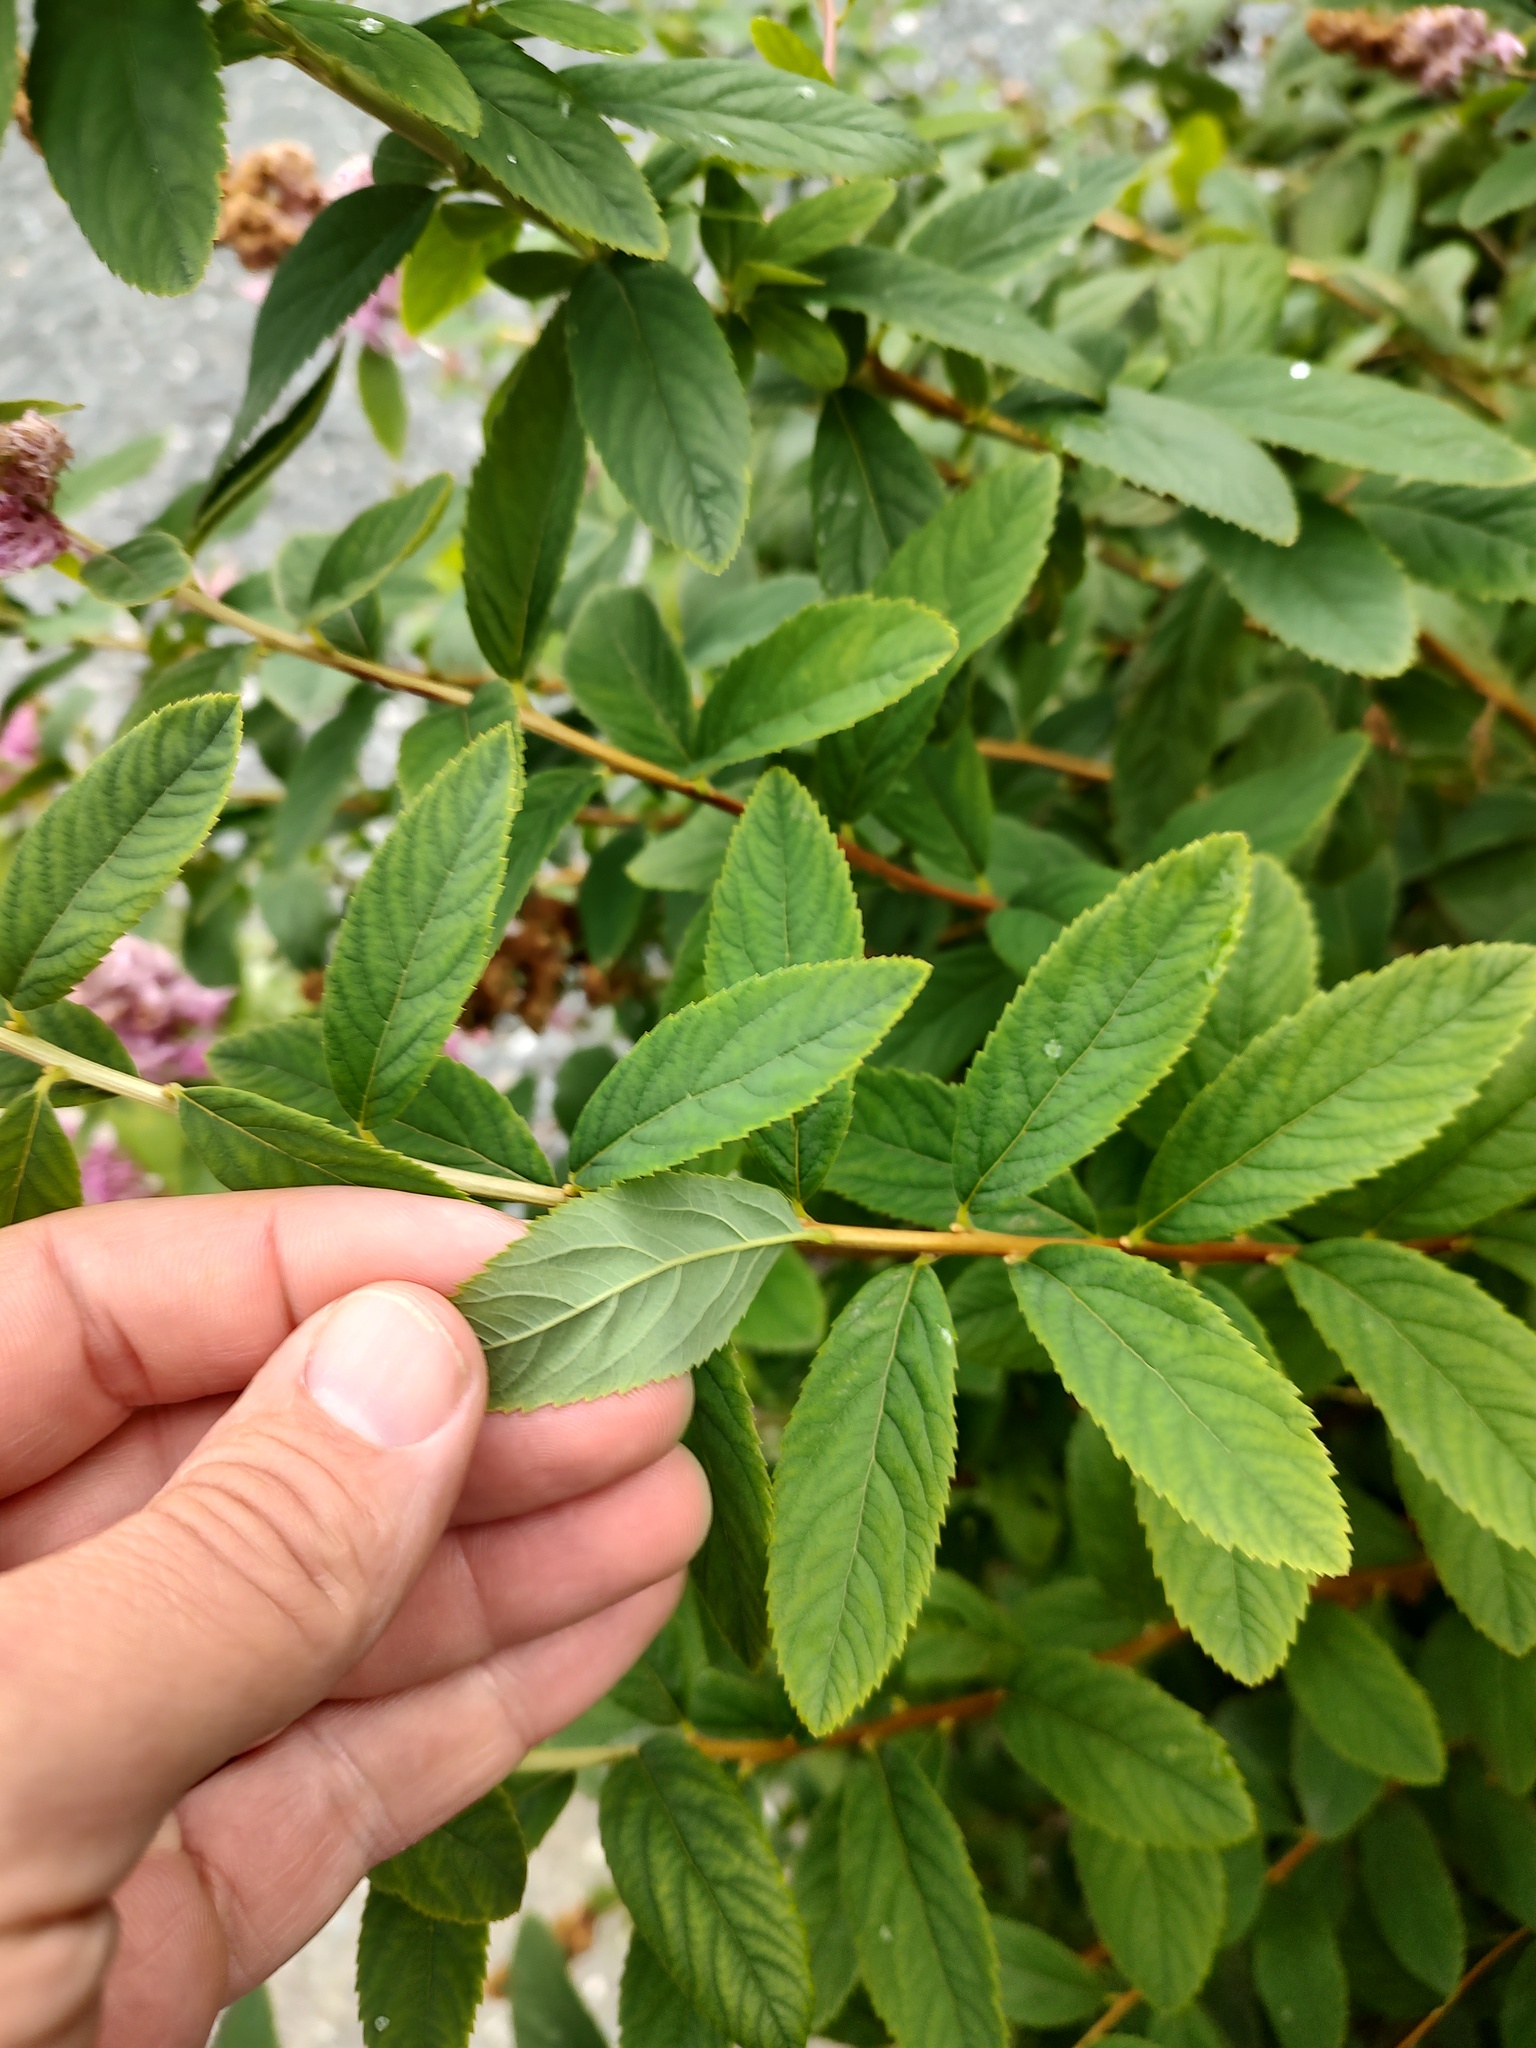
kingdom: Plantae
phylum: Tracheophyta
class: Magnoliopsida
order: Rosales
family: Rosaceae
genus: Spiraea
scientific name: Spiraea douglasii
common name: Steeplebush
